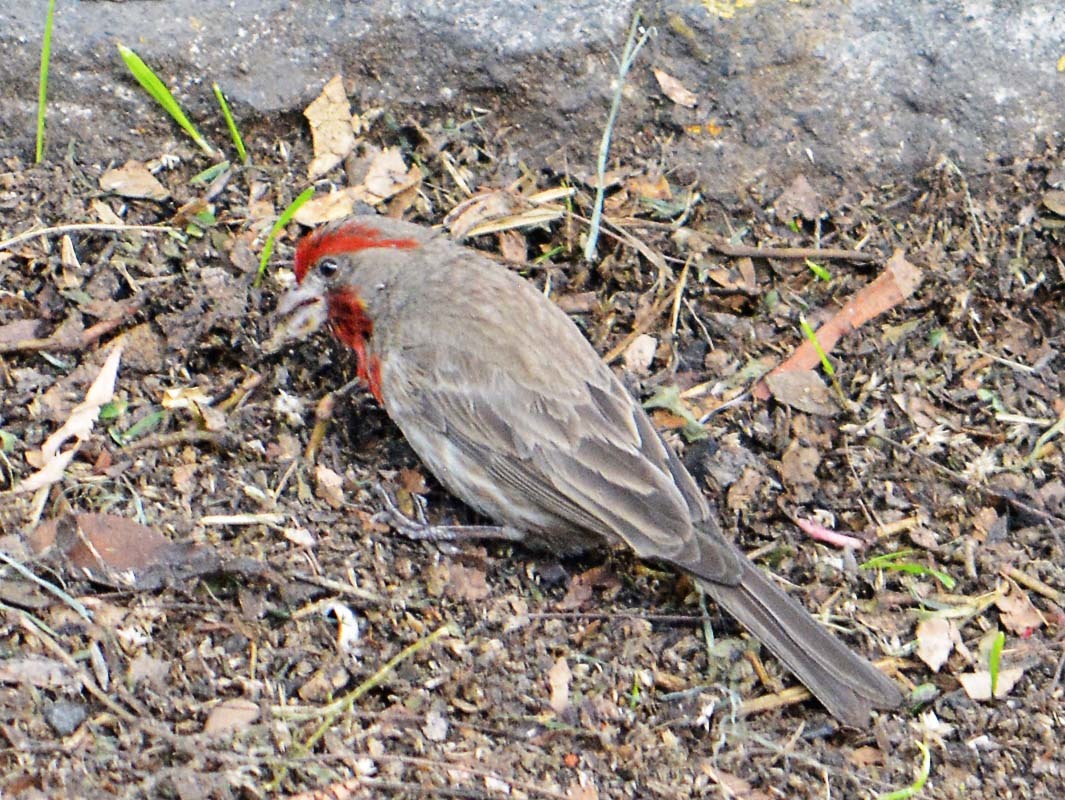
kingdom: Animalia
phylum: Chordata
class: Aves
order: Passeriformes
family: Fringillidae
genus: Haemorhous
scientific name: Haemorhous mexicanus
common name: House finch
